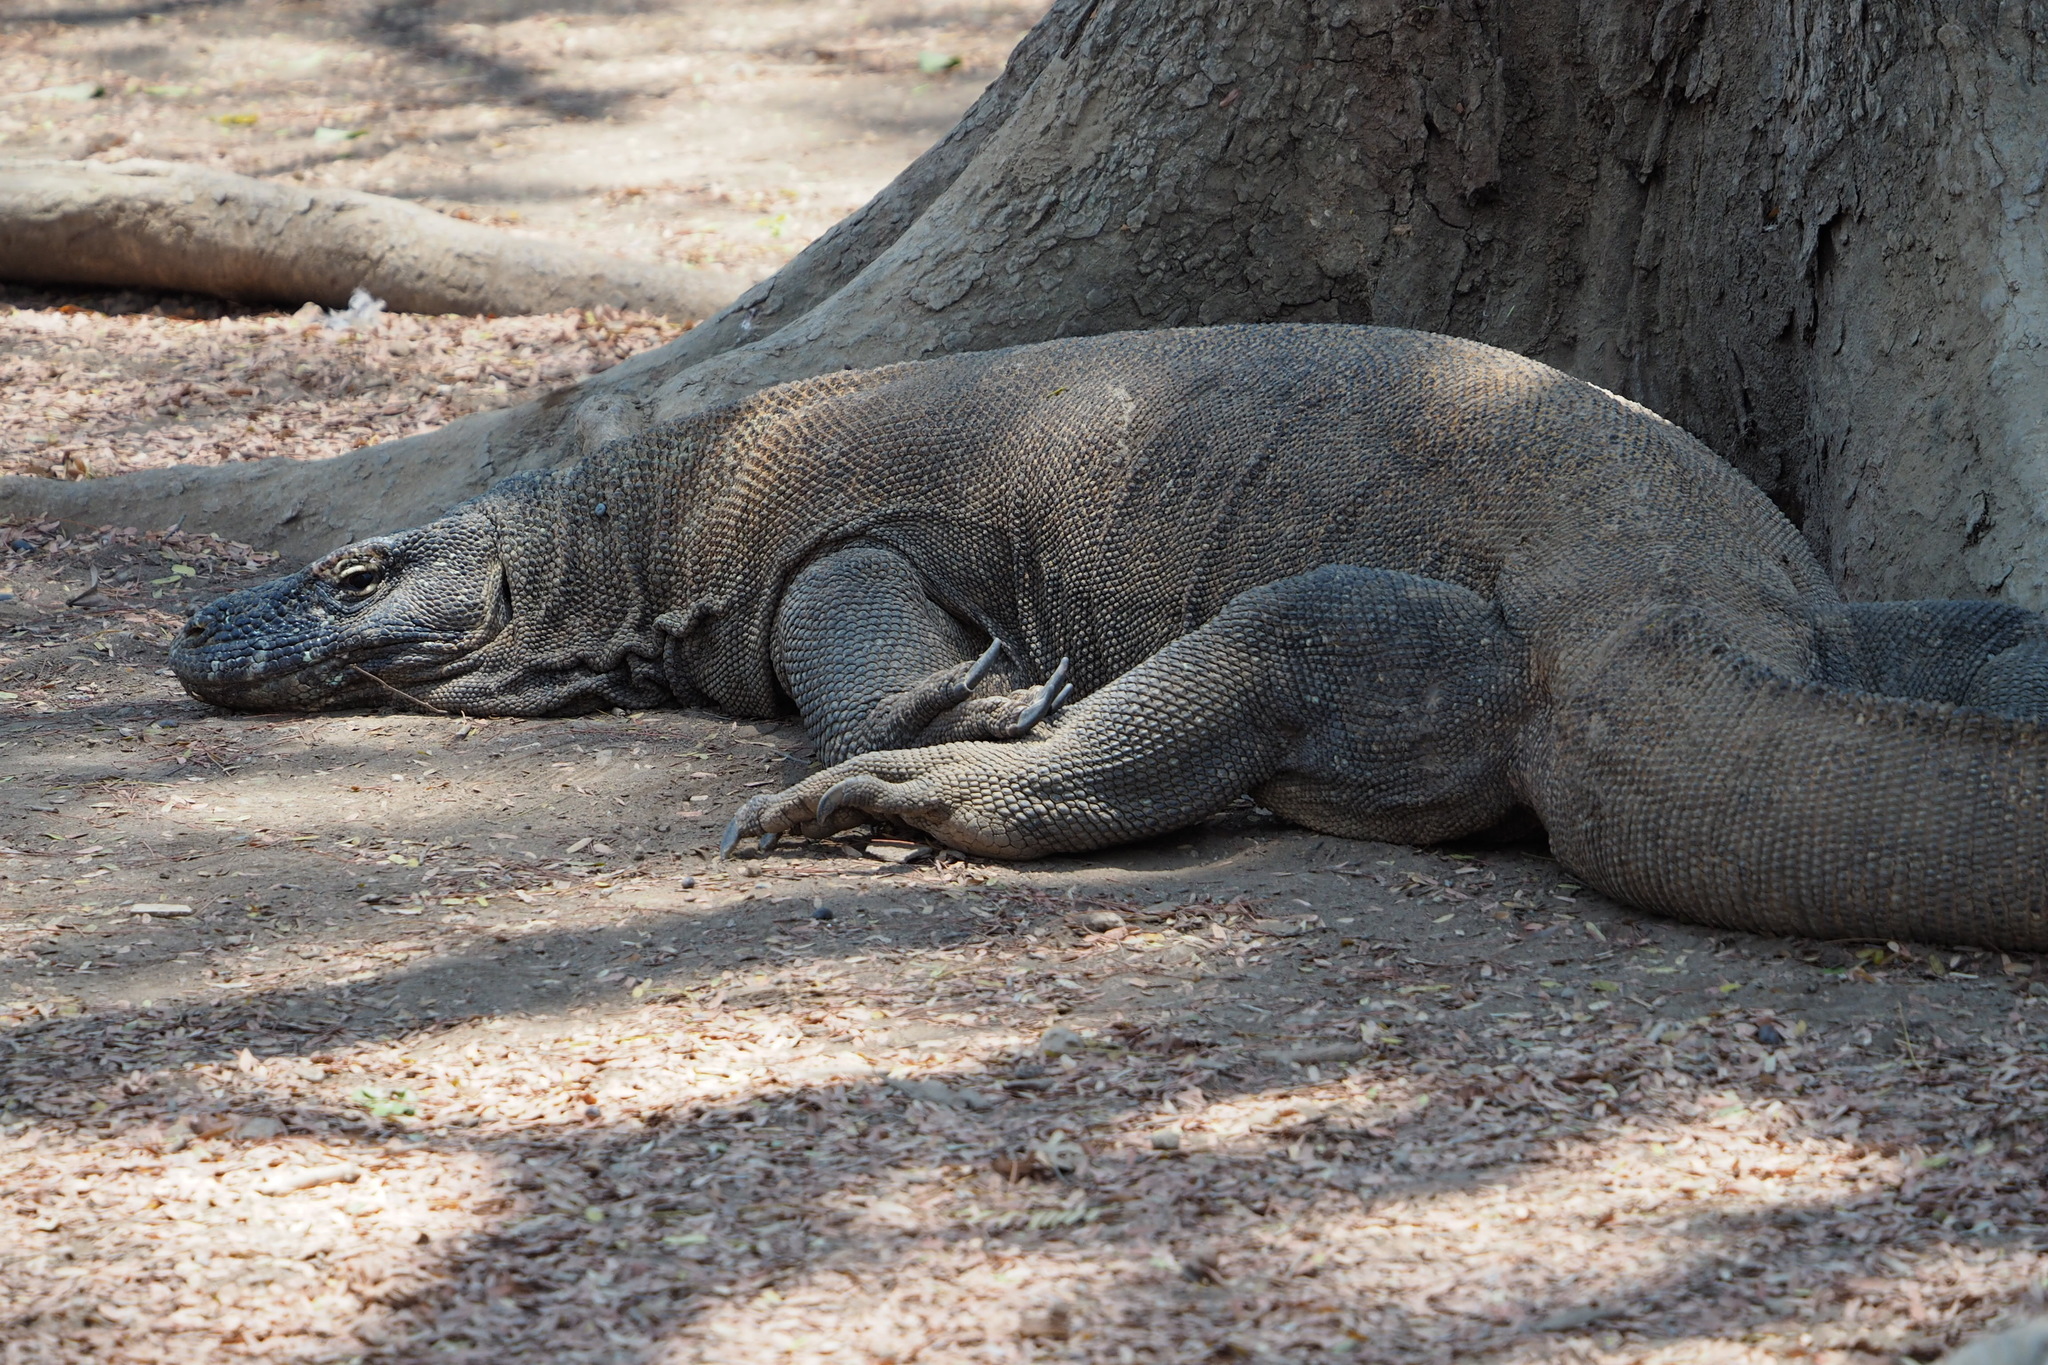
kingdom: Animalia
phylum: Chordata
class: Squamata
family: Varanidae
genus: Varanus
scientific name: Varanus komodoensis
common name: Komodo dragon
